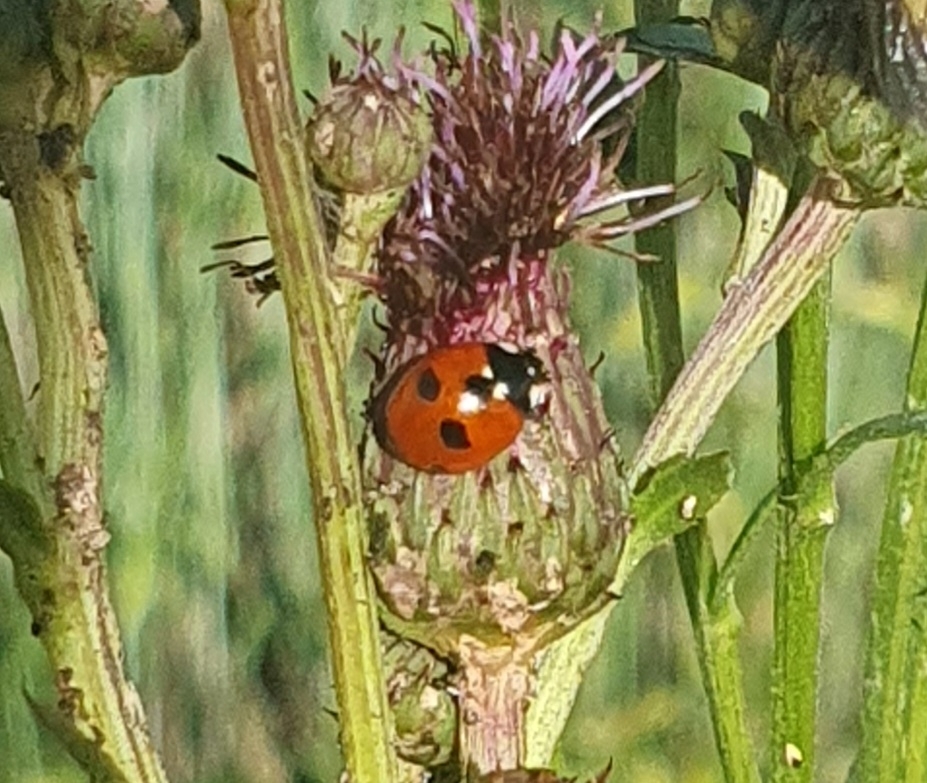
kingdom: Animalia
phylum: Arthropoda
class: Insecta
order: Coleoptera
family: Coccinellidae
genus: Coccinella
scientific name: Coccinella quinquepunctata
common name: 5-spot ladybird
